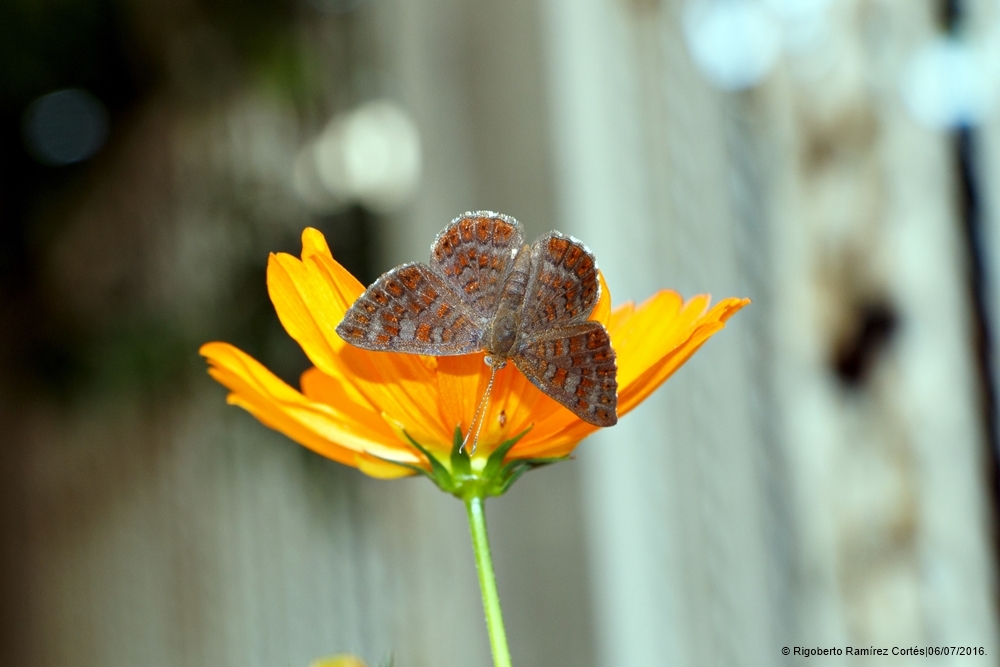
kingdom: Animalia
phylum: Arthropoda
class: Insecta
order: Lepidoptera
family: Lycaenidae
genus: Emesis
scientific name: Emesis poeas
